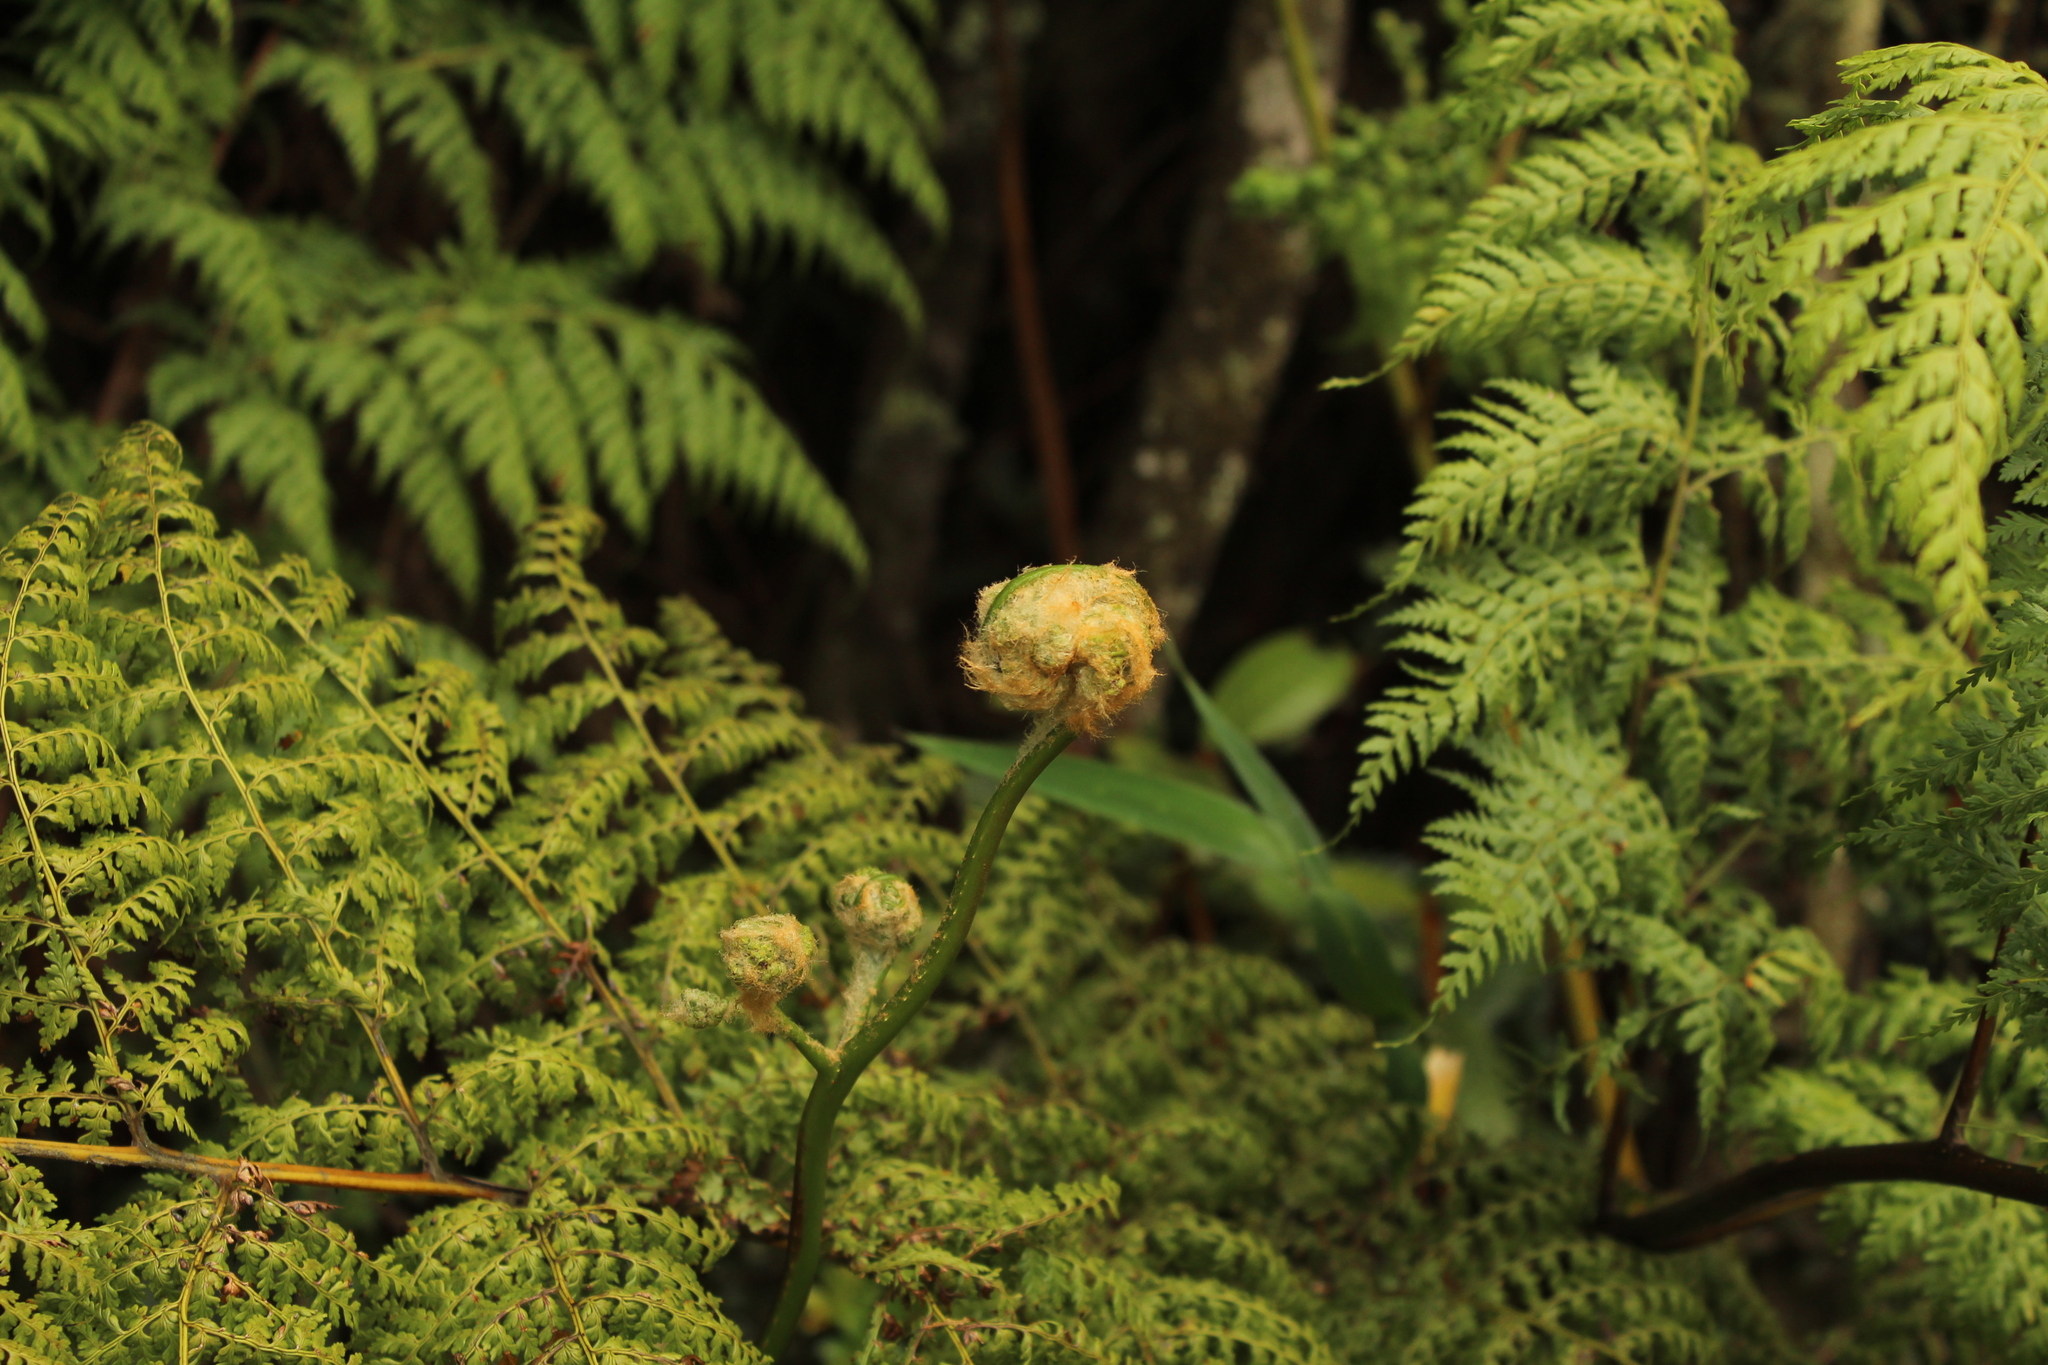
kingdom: Plantae
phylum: Tracheophyta
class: Polypodiopsida
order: Cyatheales
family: Culcitaceae
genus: Culcita
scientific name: Culcita coniifolia
